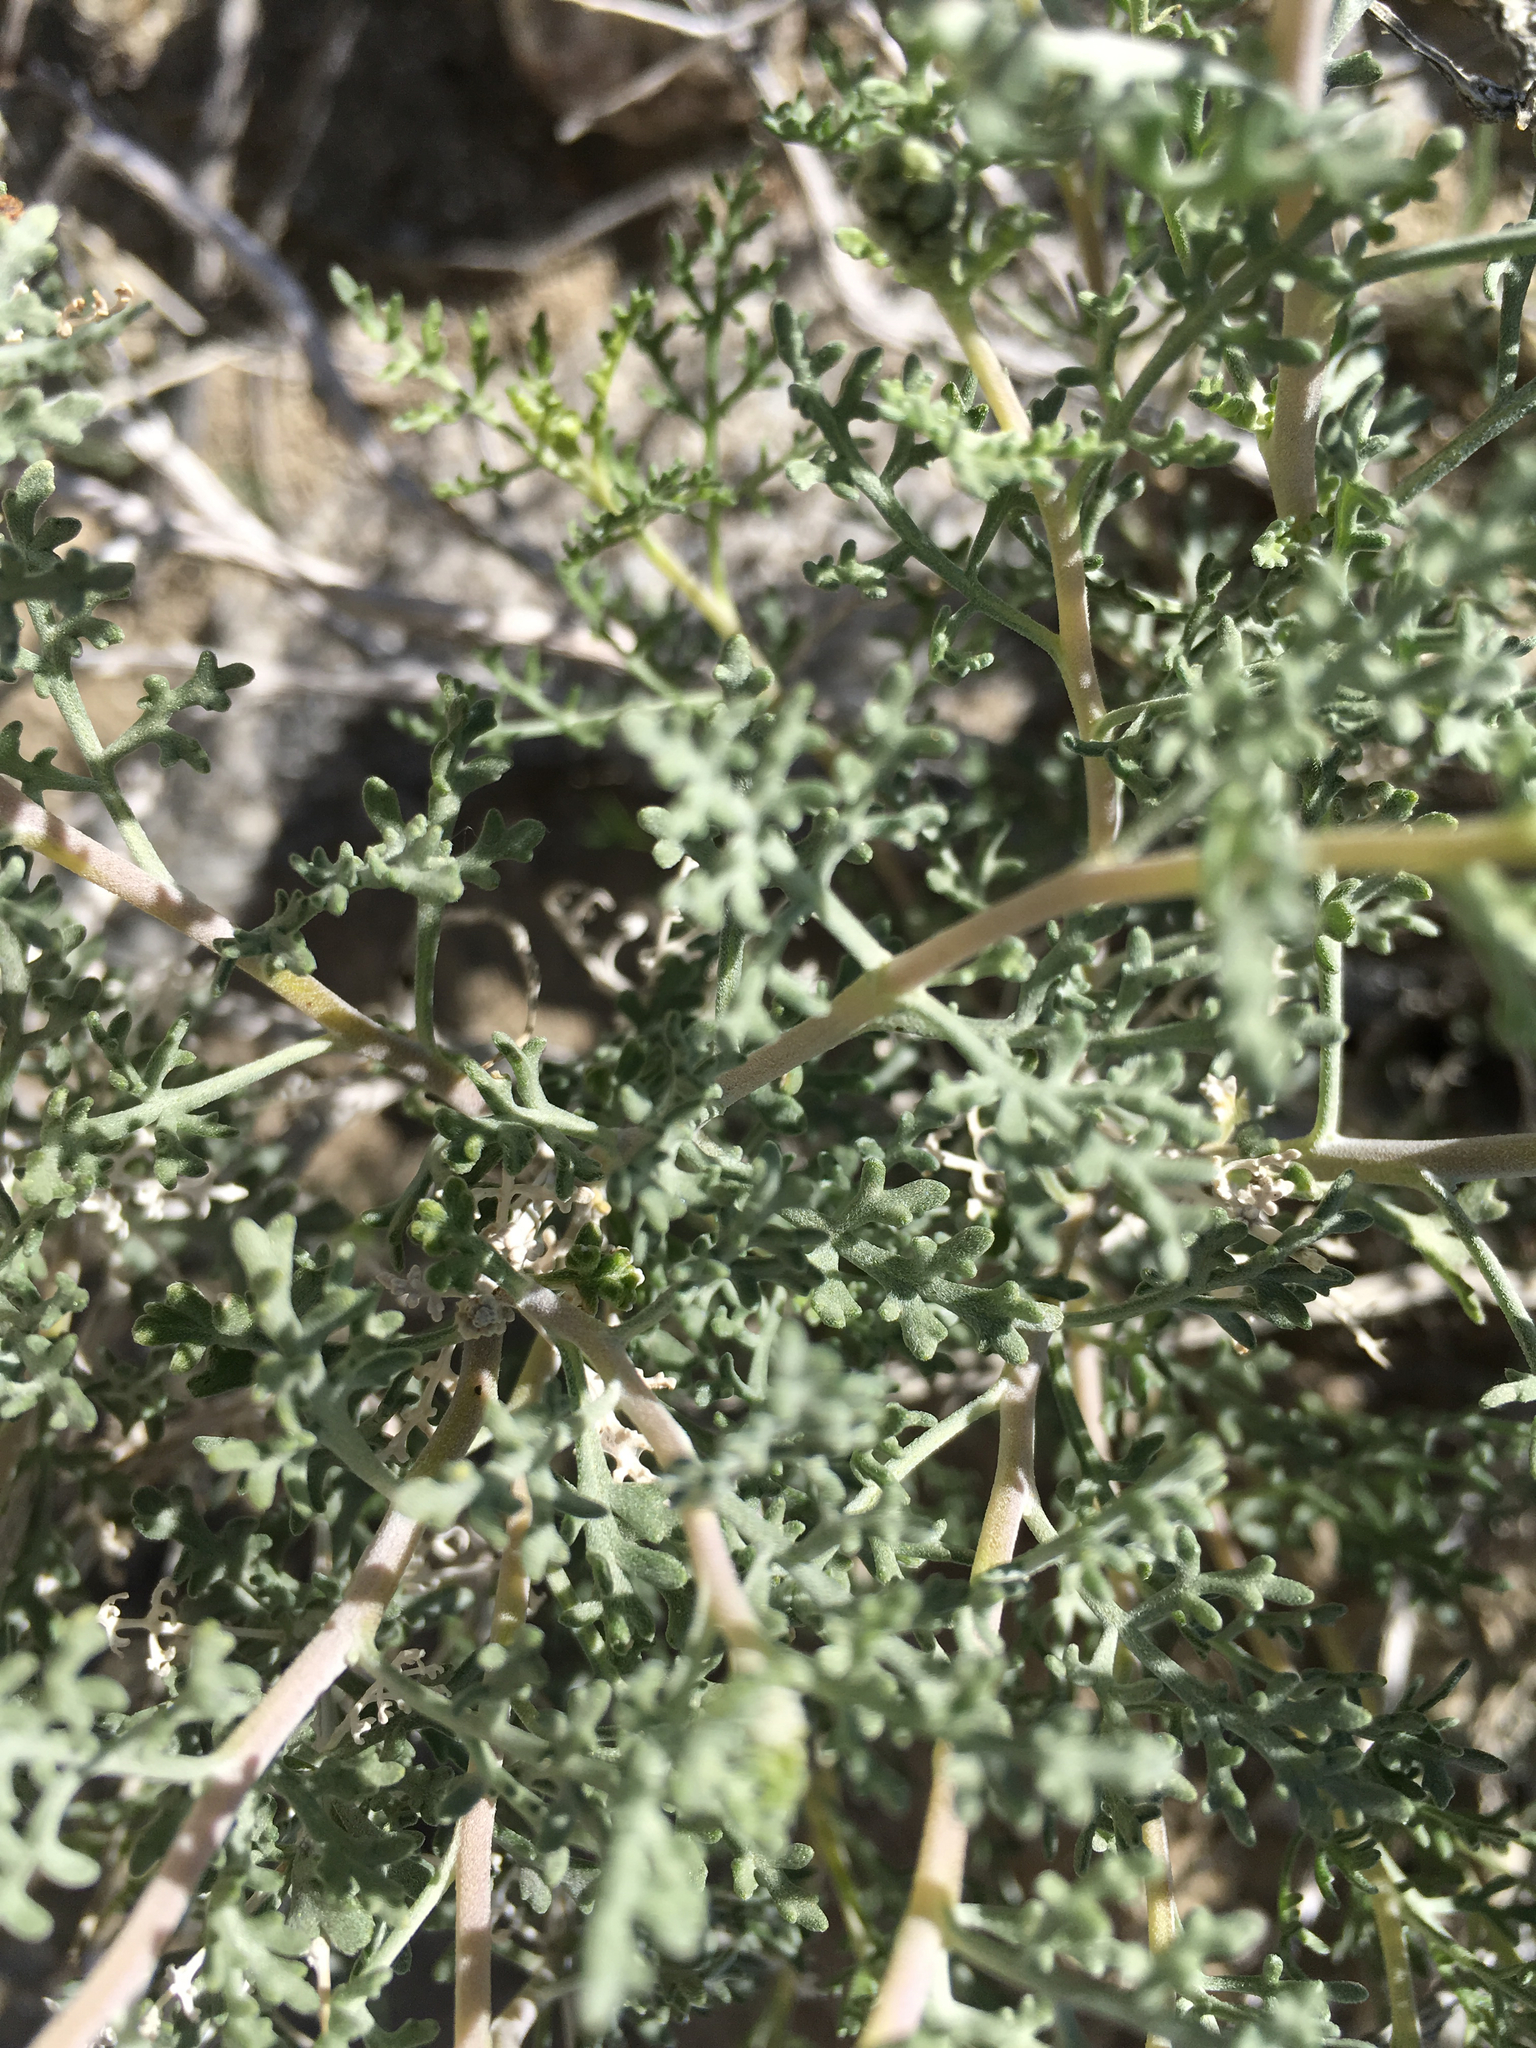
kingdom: Plantae
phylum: Tracheophyta
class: Magnoliopsida
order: Asterales
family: Asteraceae
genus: Ambrosia
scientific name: Ambrosia dumosa
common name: Bur-sage
